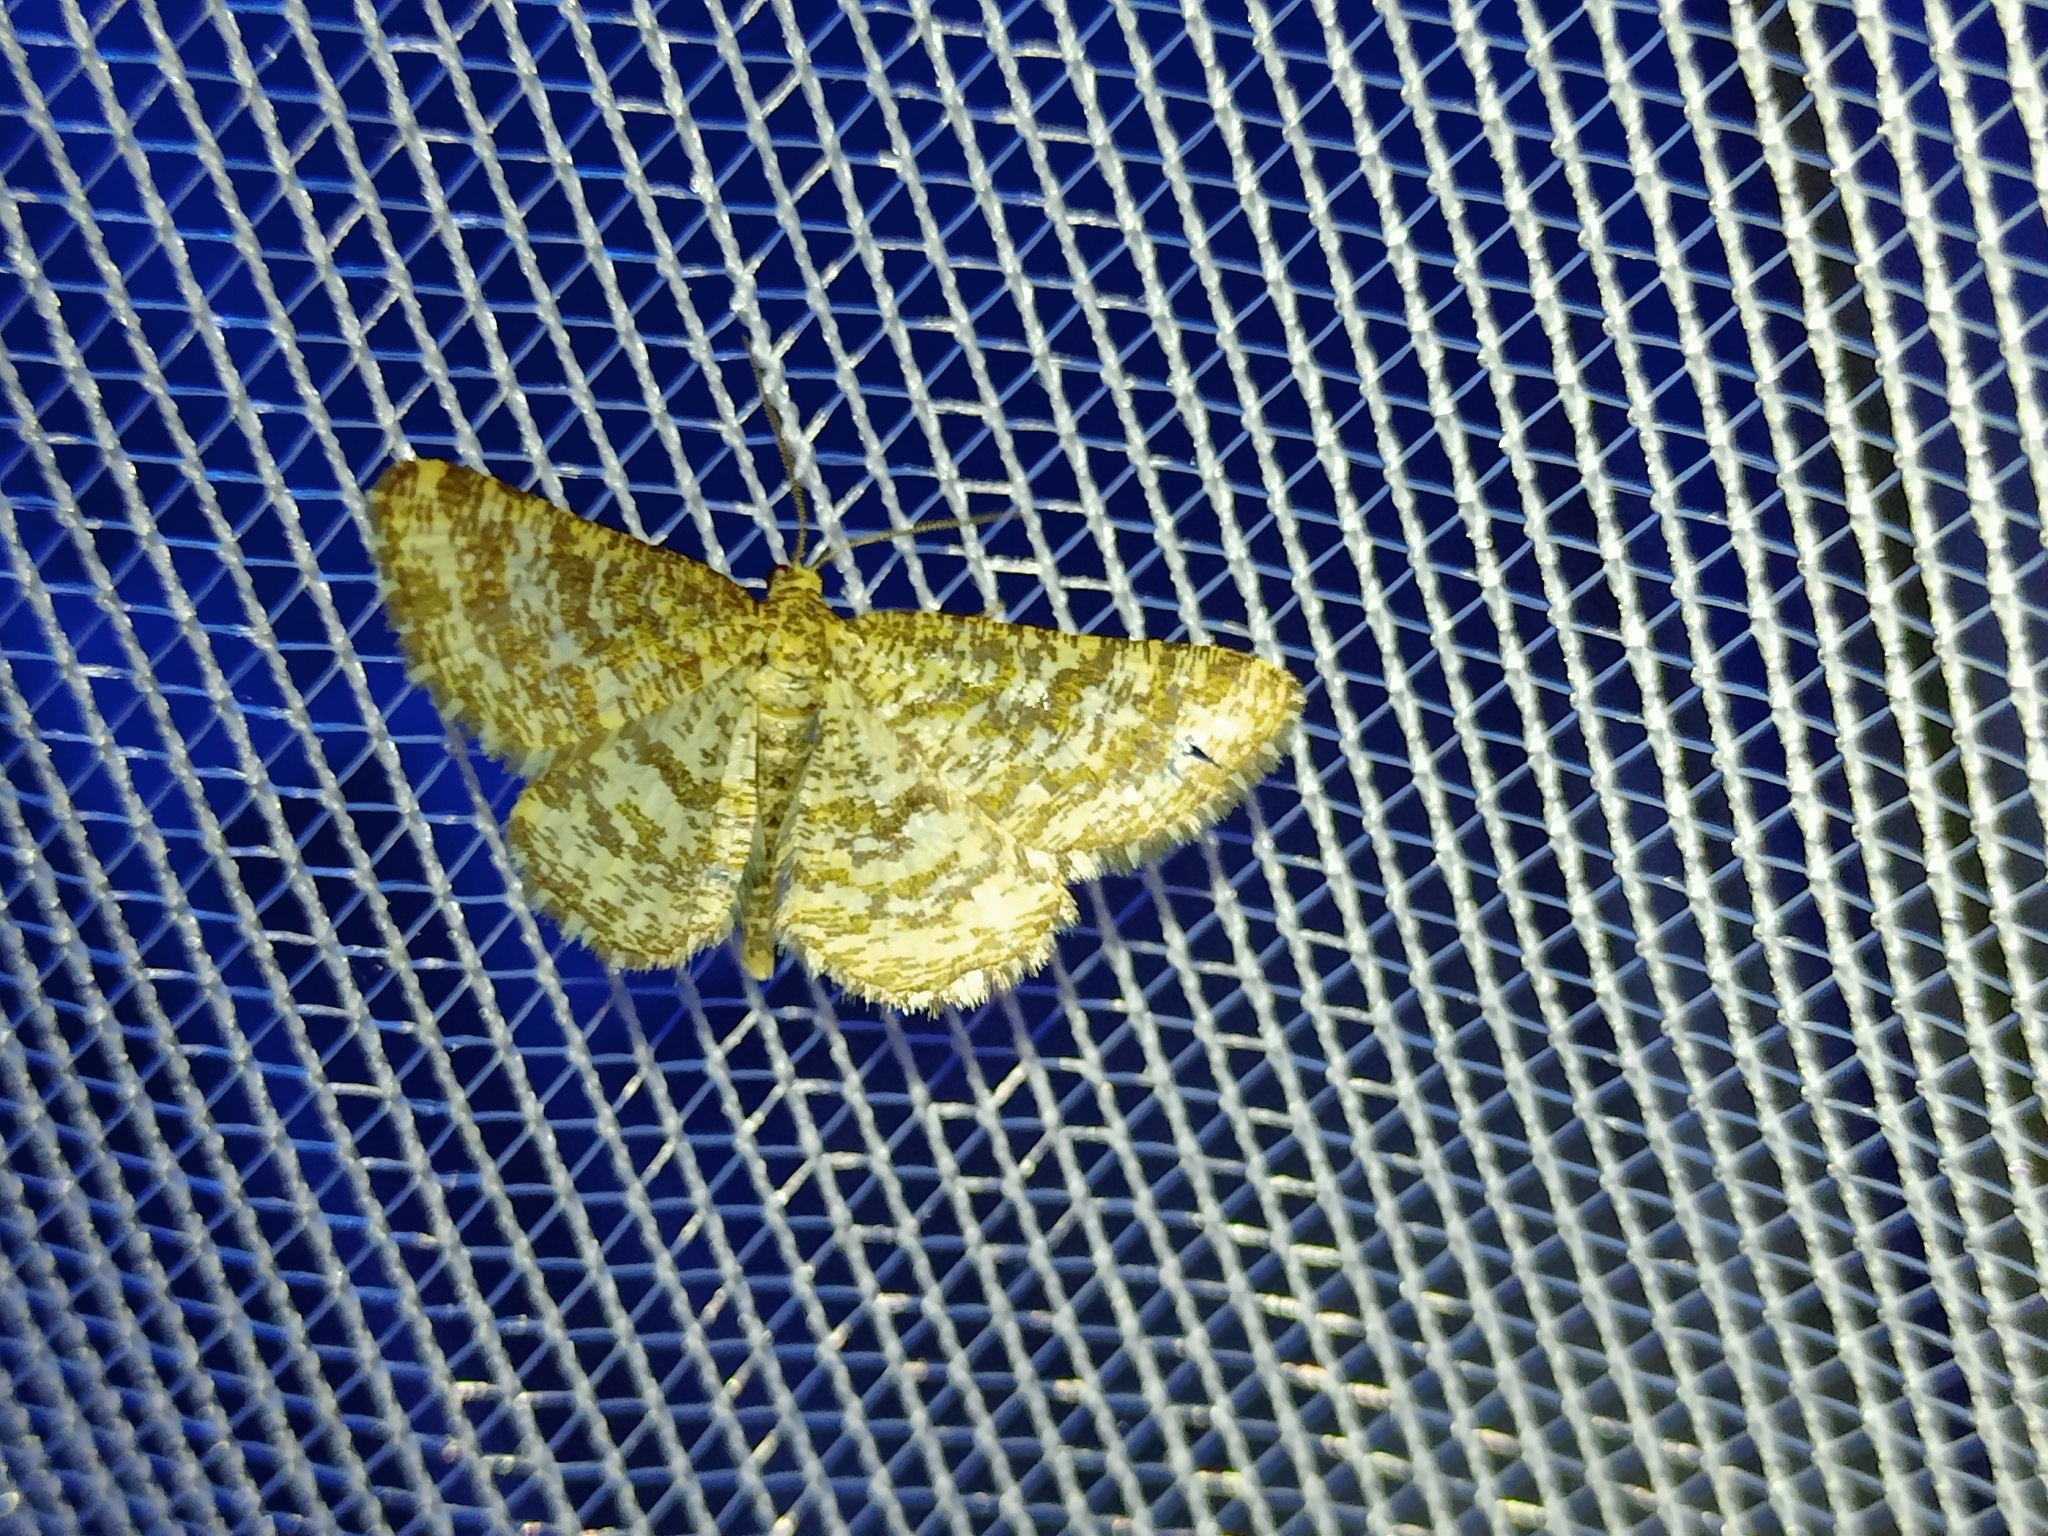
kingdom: Animalia
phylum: Arthropoda
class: Insecta
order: Lepidoptera
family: Geometridae
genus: Heliomata
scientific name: Heliomata glarearia
